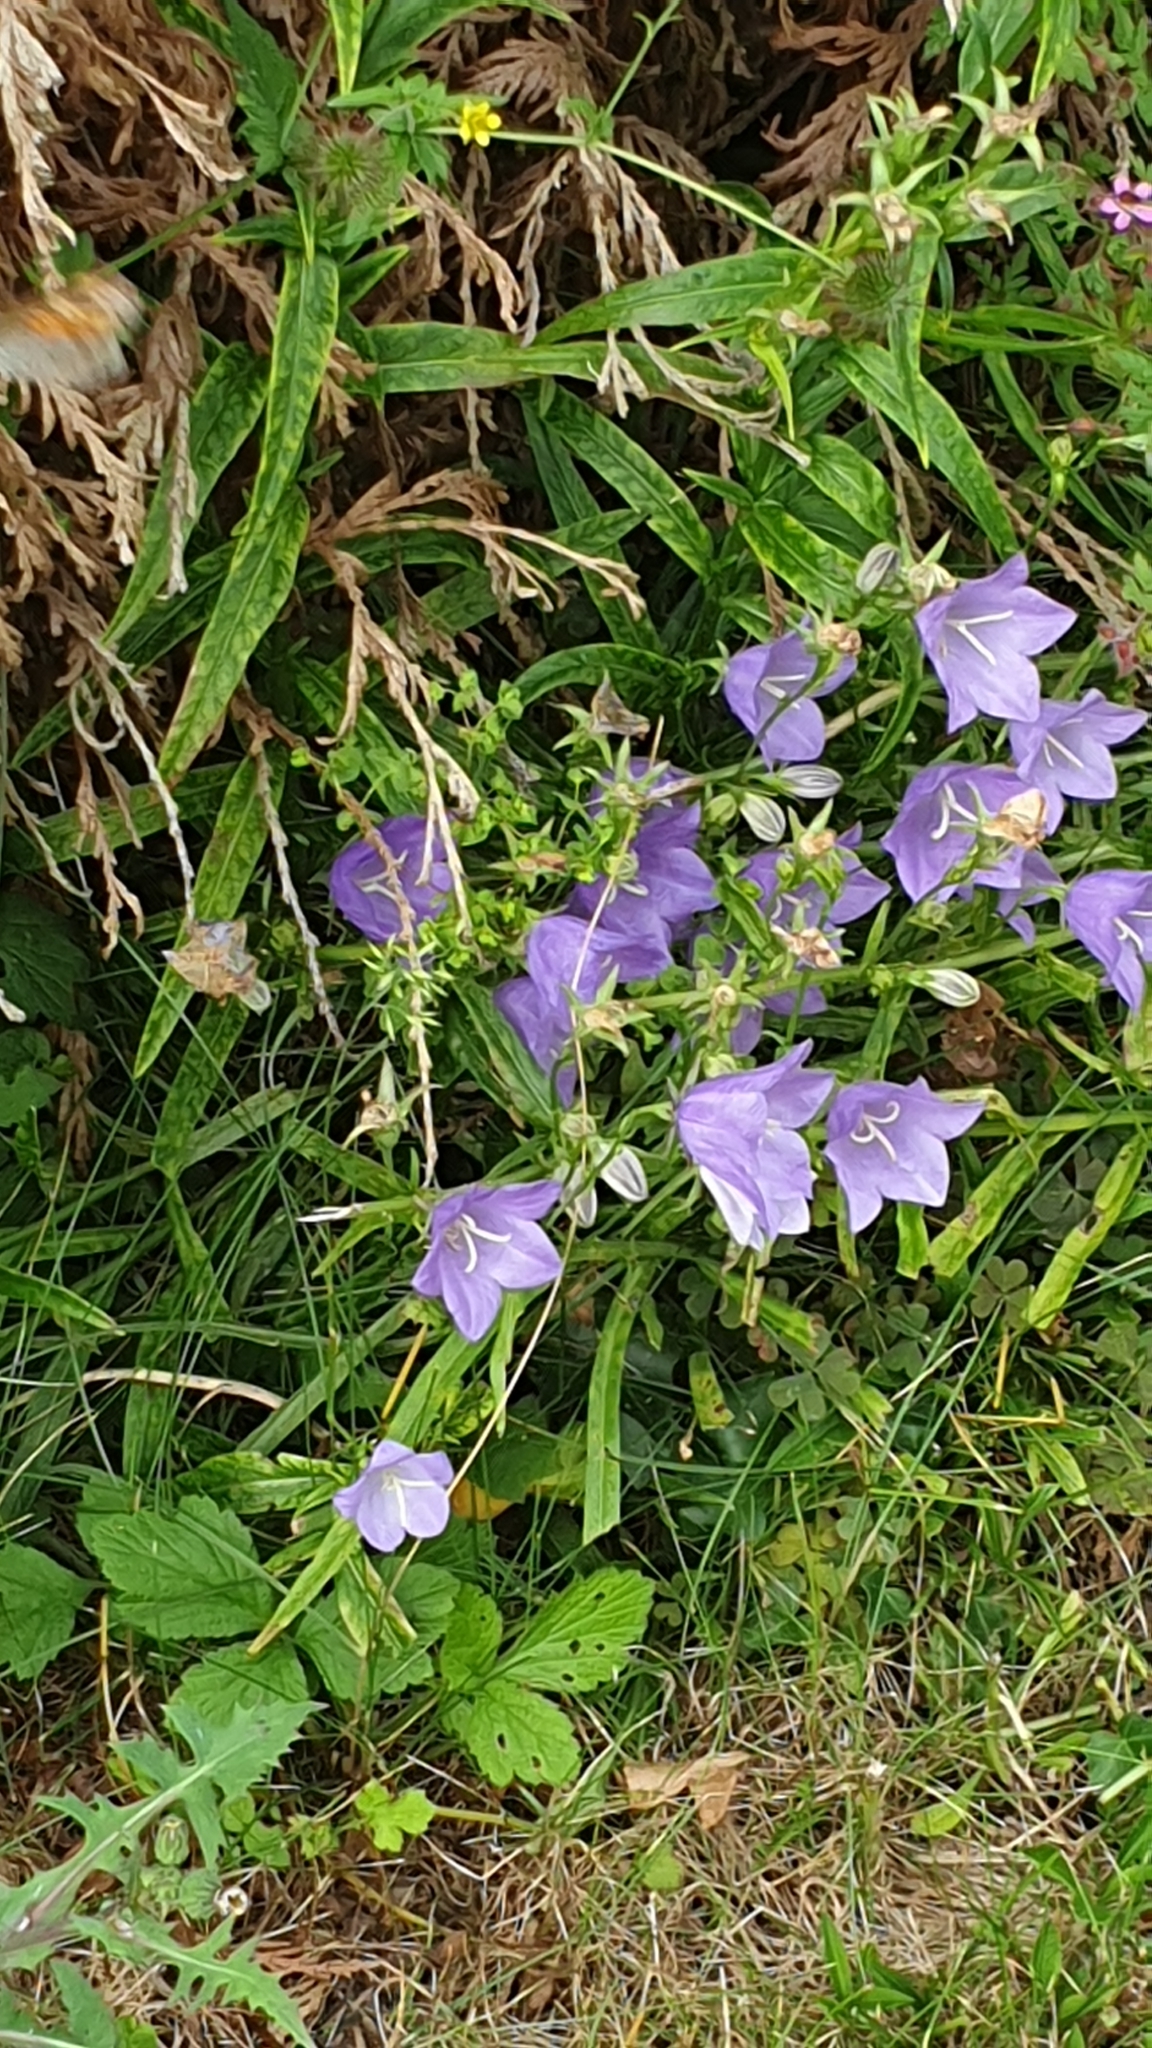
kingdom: Plantae
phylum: Tracheophyta
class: Magnoliopsida
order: Asterales
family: Campanulaceae
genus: Campanula
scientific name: Campanula persicifolia
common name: Peach-leaved bellflower
